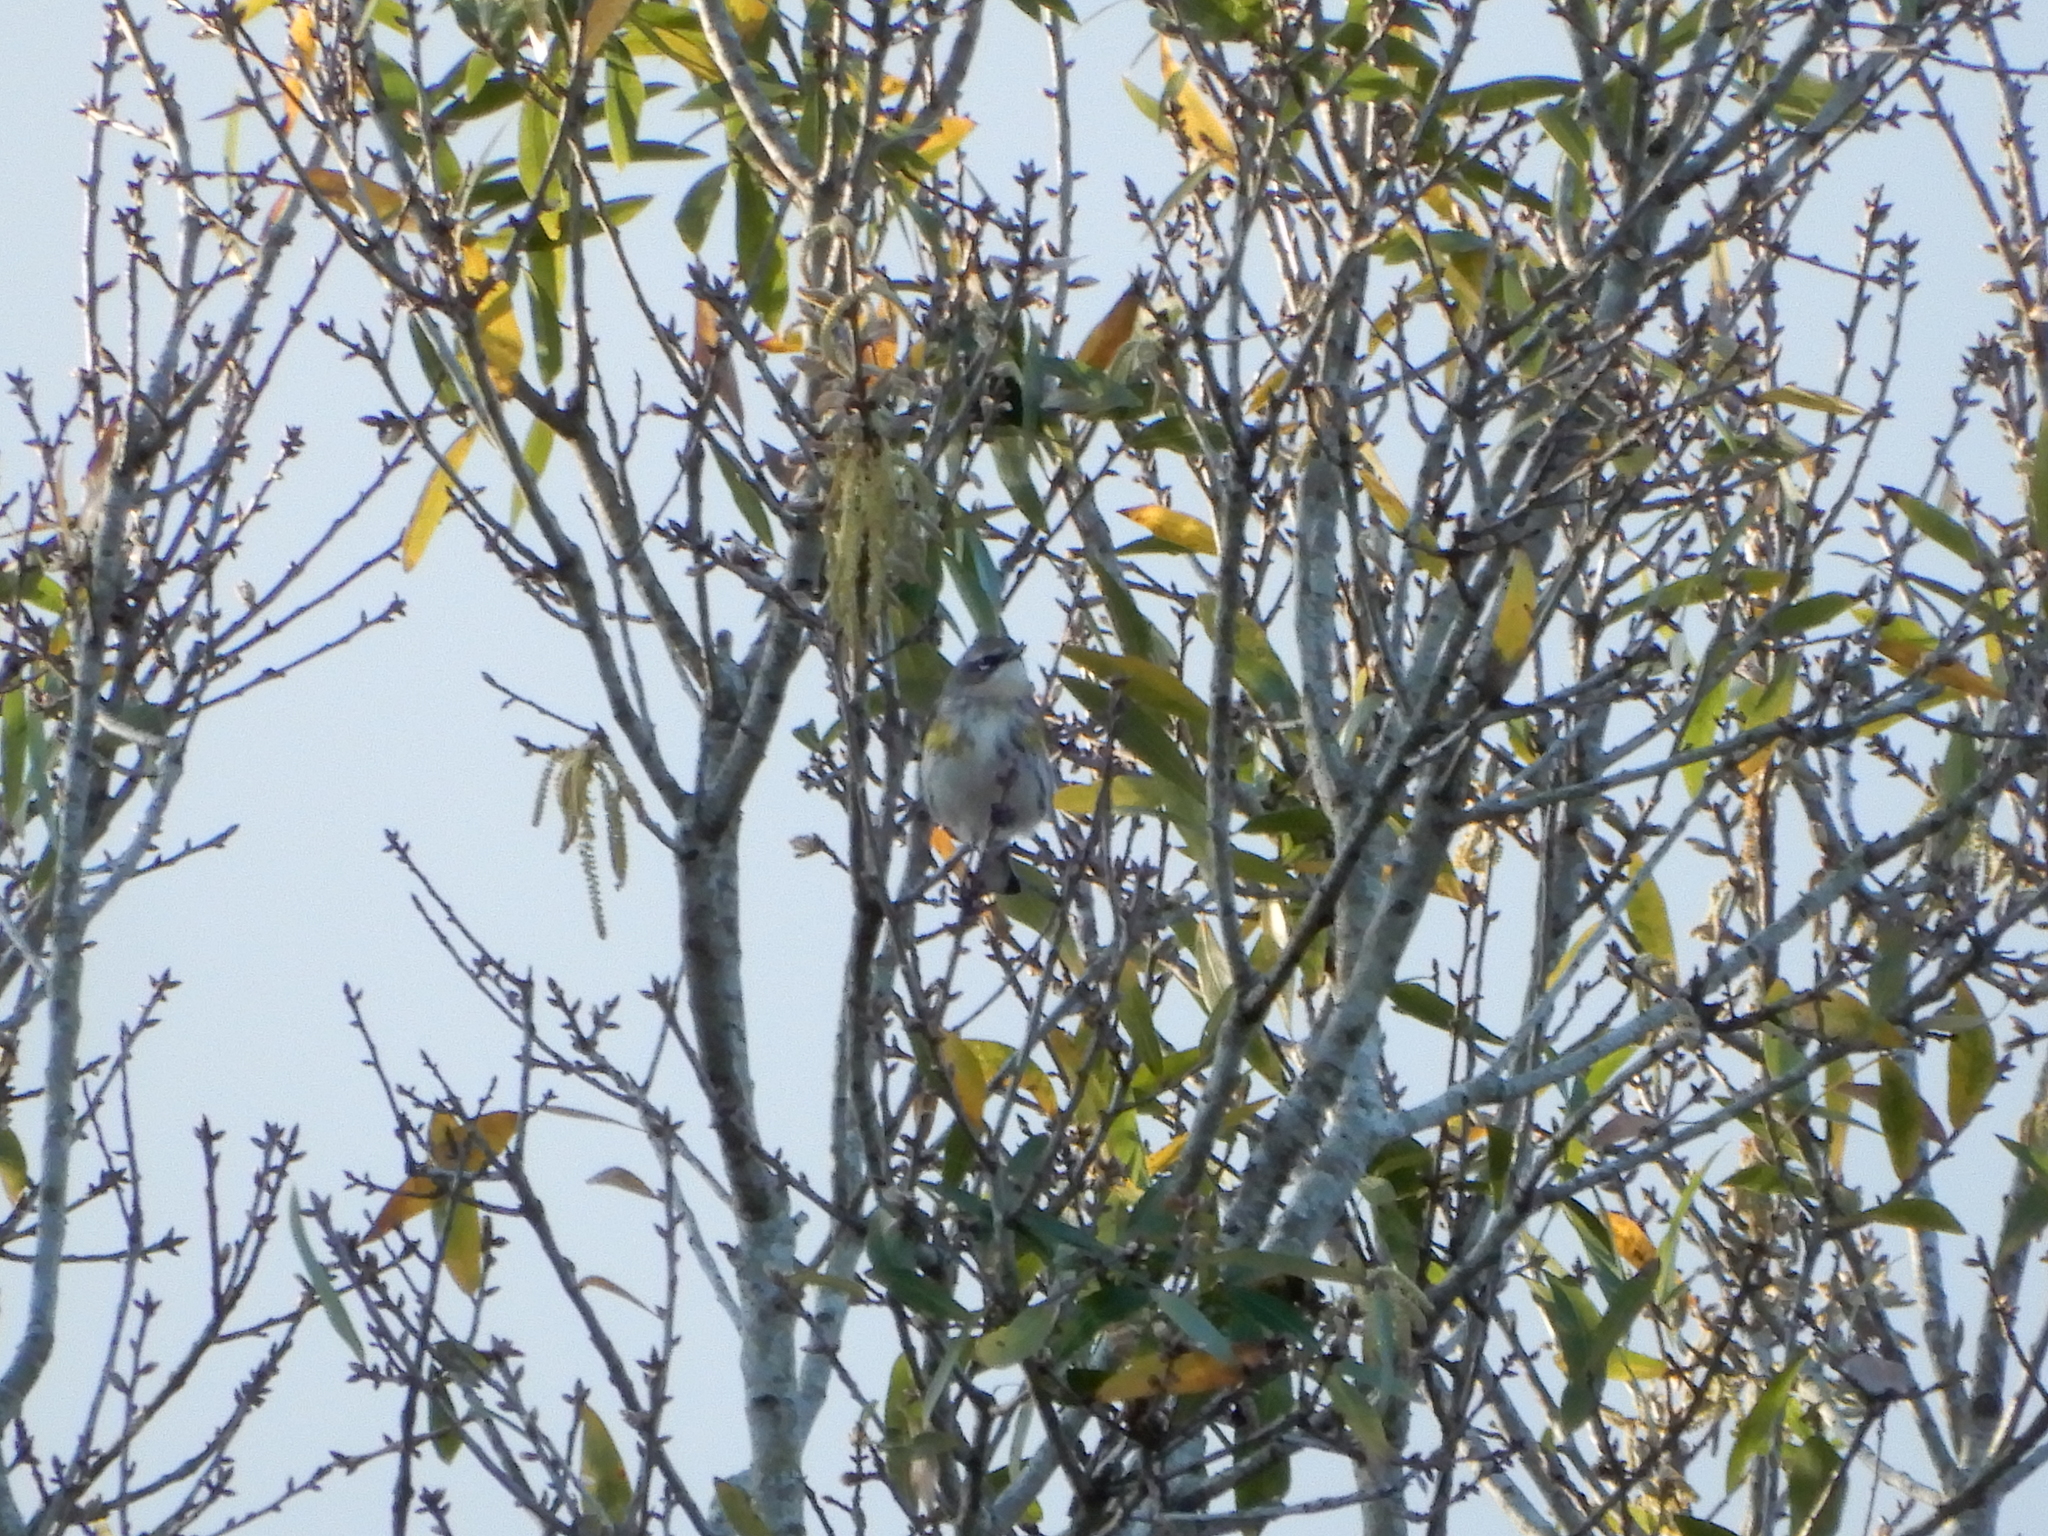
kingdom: Animalia
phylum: Chordata
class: Aves
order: Passeriformes
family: Parulidae
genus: Setophaga
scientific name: Setophaga coronata
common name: Myrtle warbler
